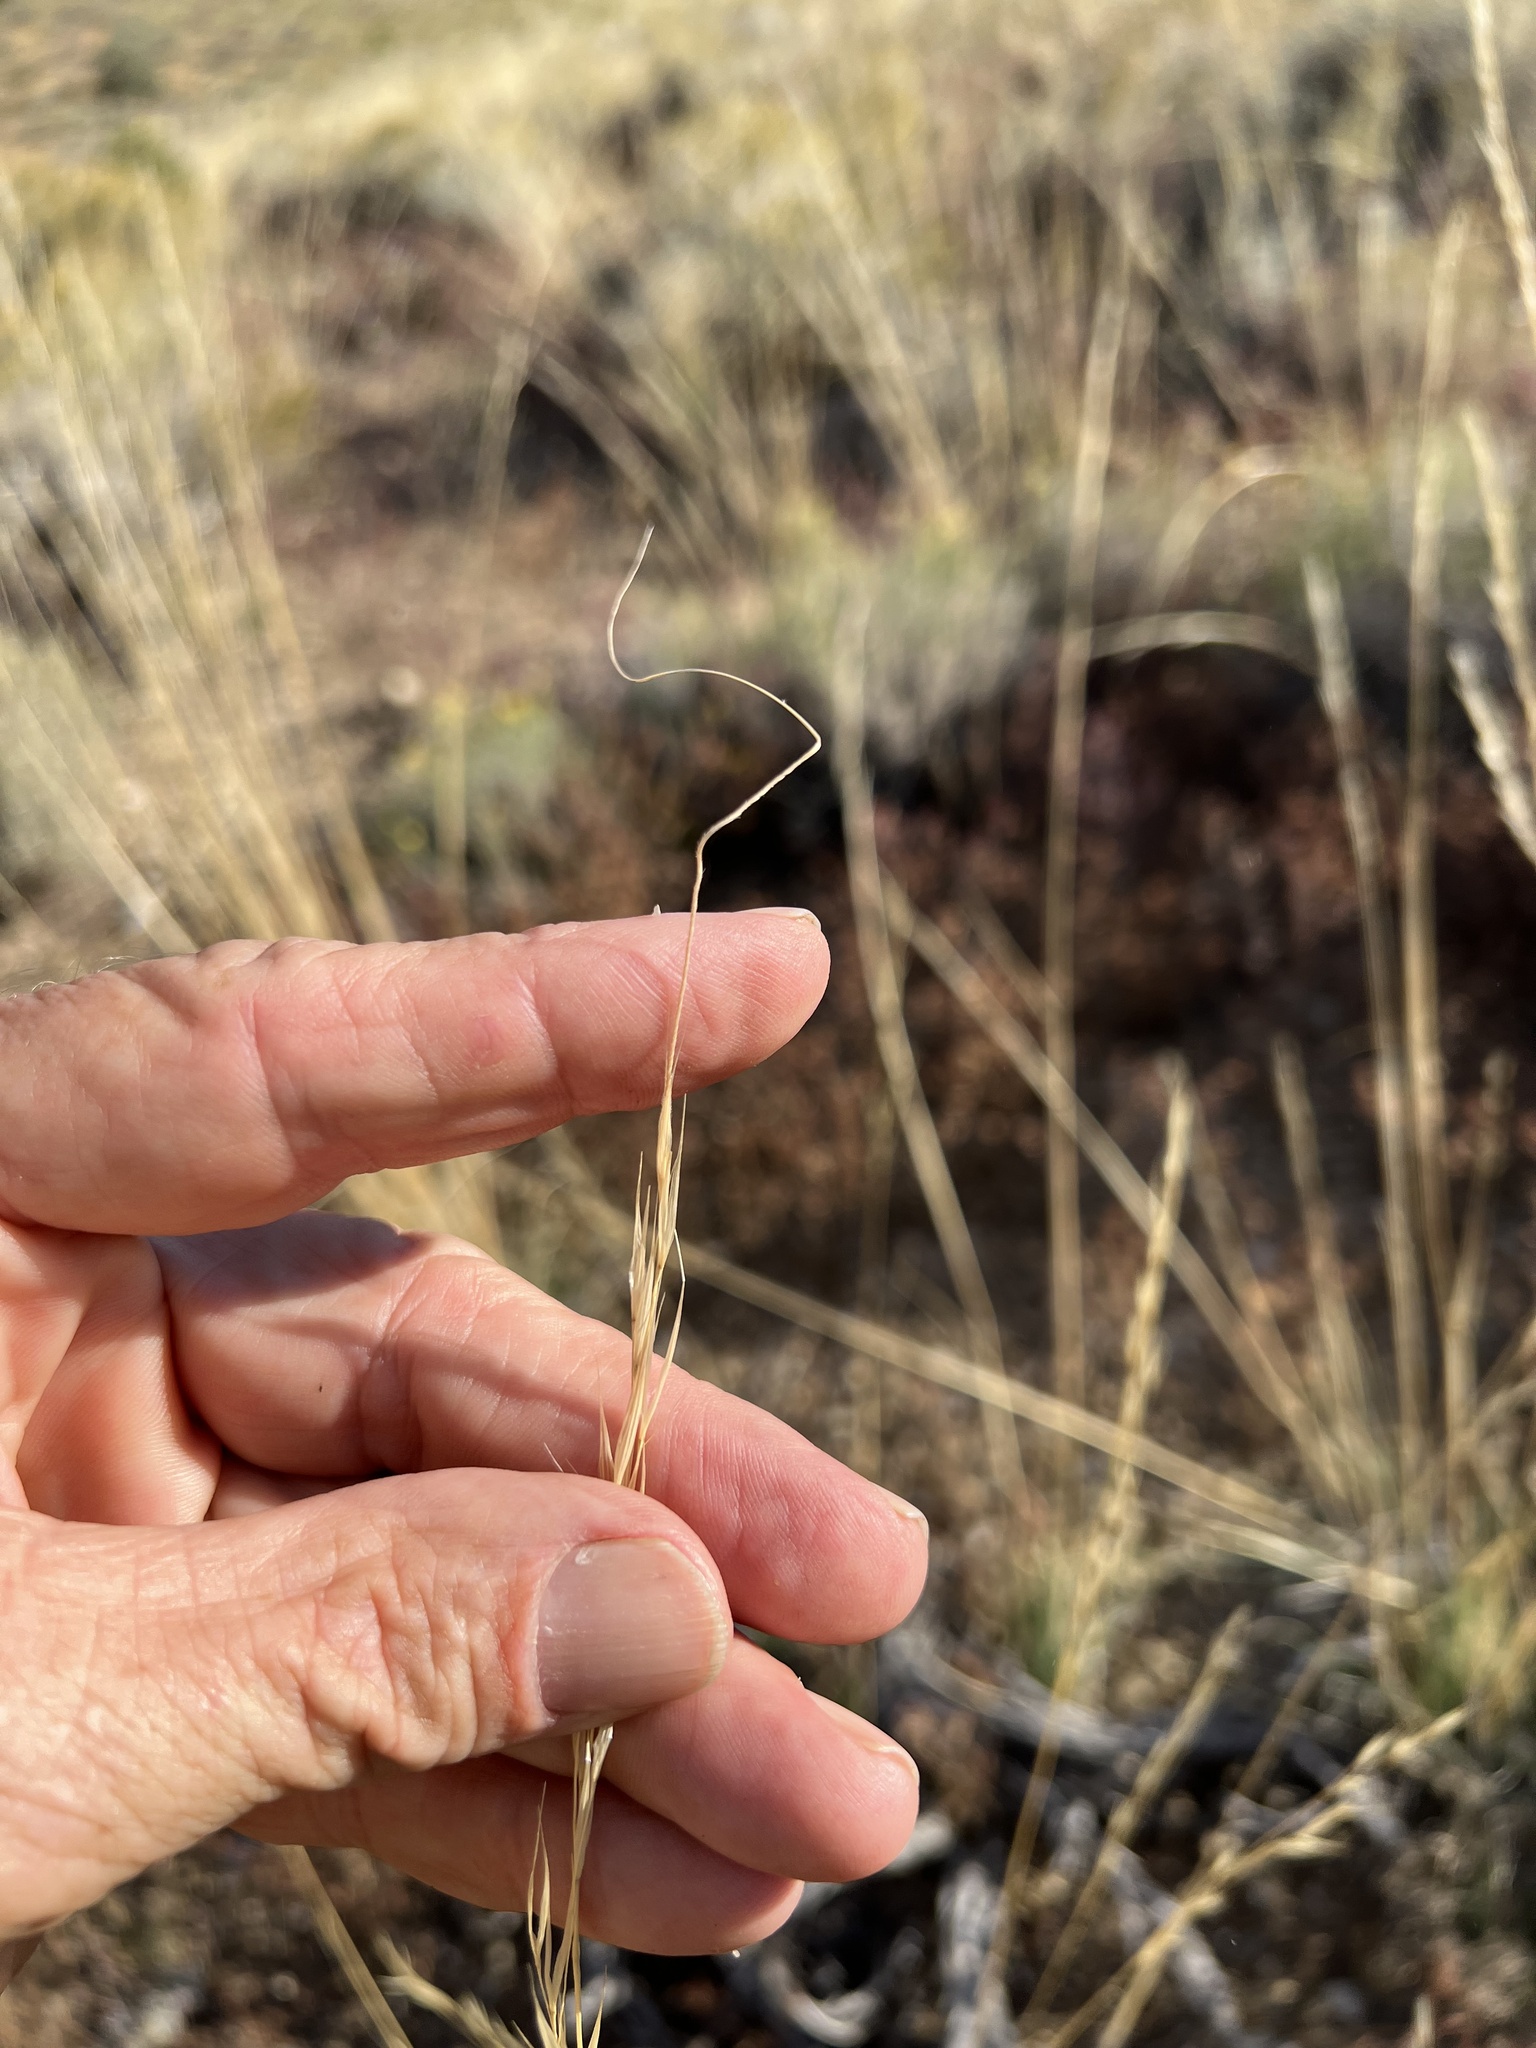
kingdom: Plantae
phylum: Tracheophyta
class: Liliopsida
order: Poales
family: Poaceae
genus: Hesperostipa
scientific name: Hesperostipa comata
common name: Needle-and-thread grass
